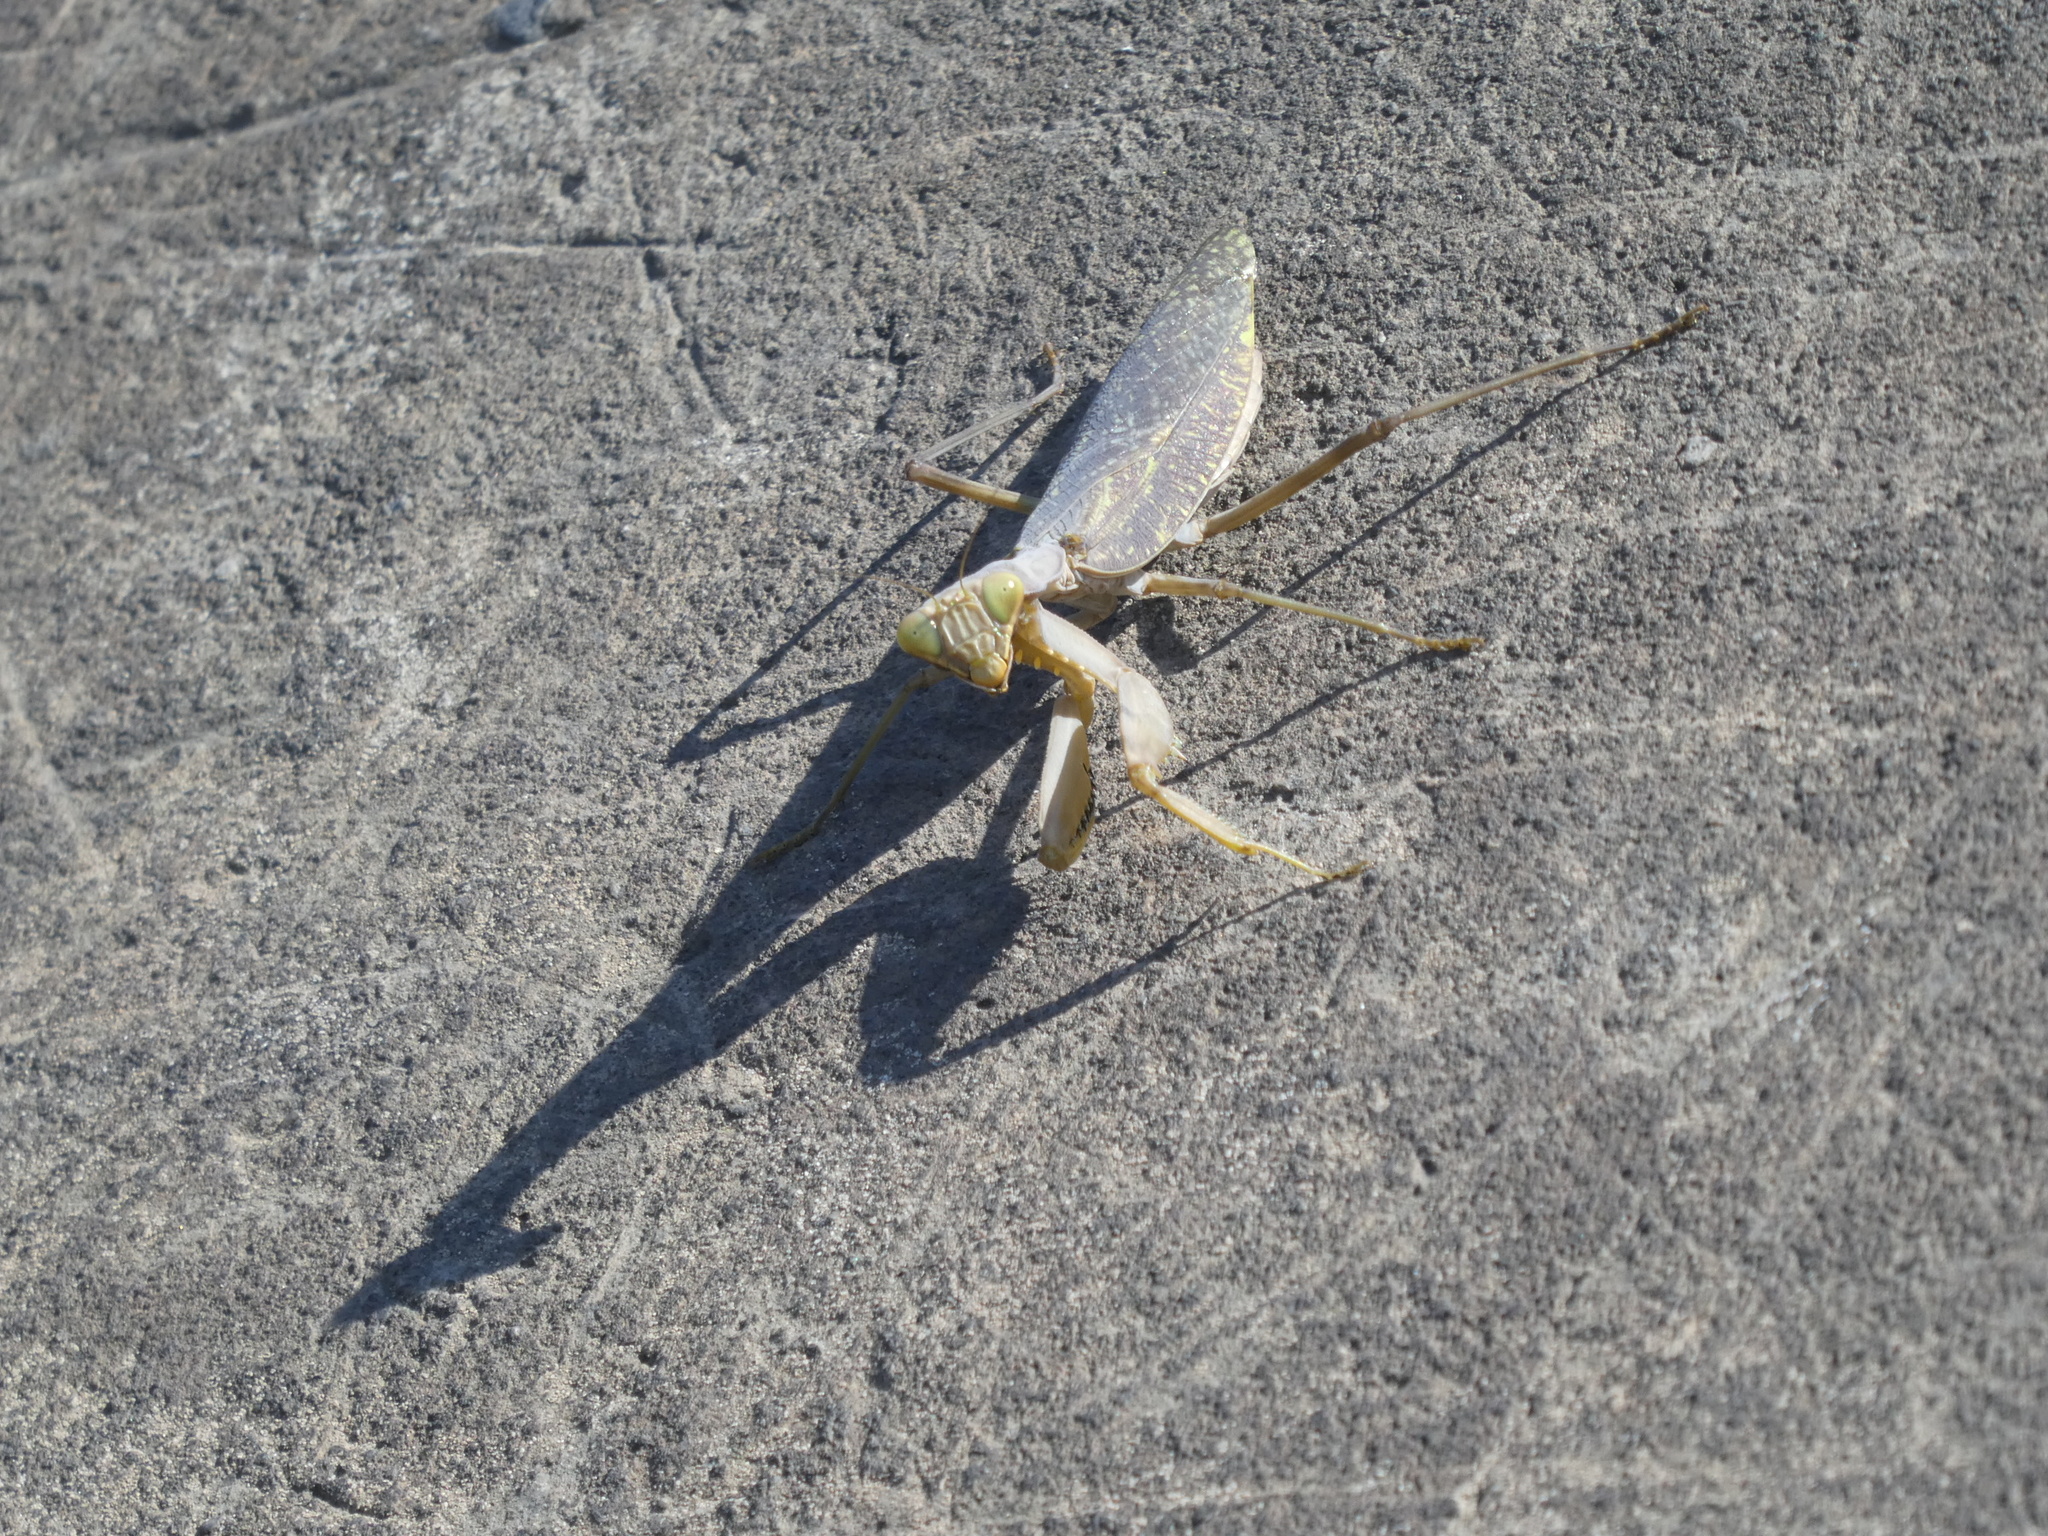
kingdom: Animalia
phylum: Arthropoda
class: Insecta
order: Mantodea
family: Mantidae
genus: Hierodula
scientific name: Hierodula patellifera
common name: Asian mantis
